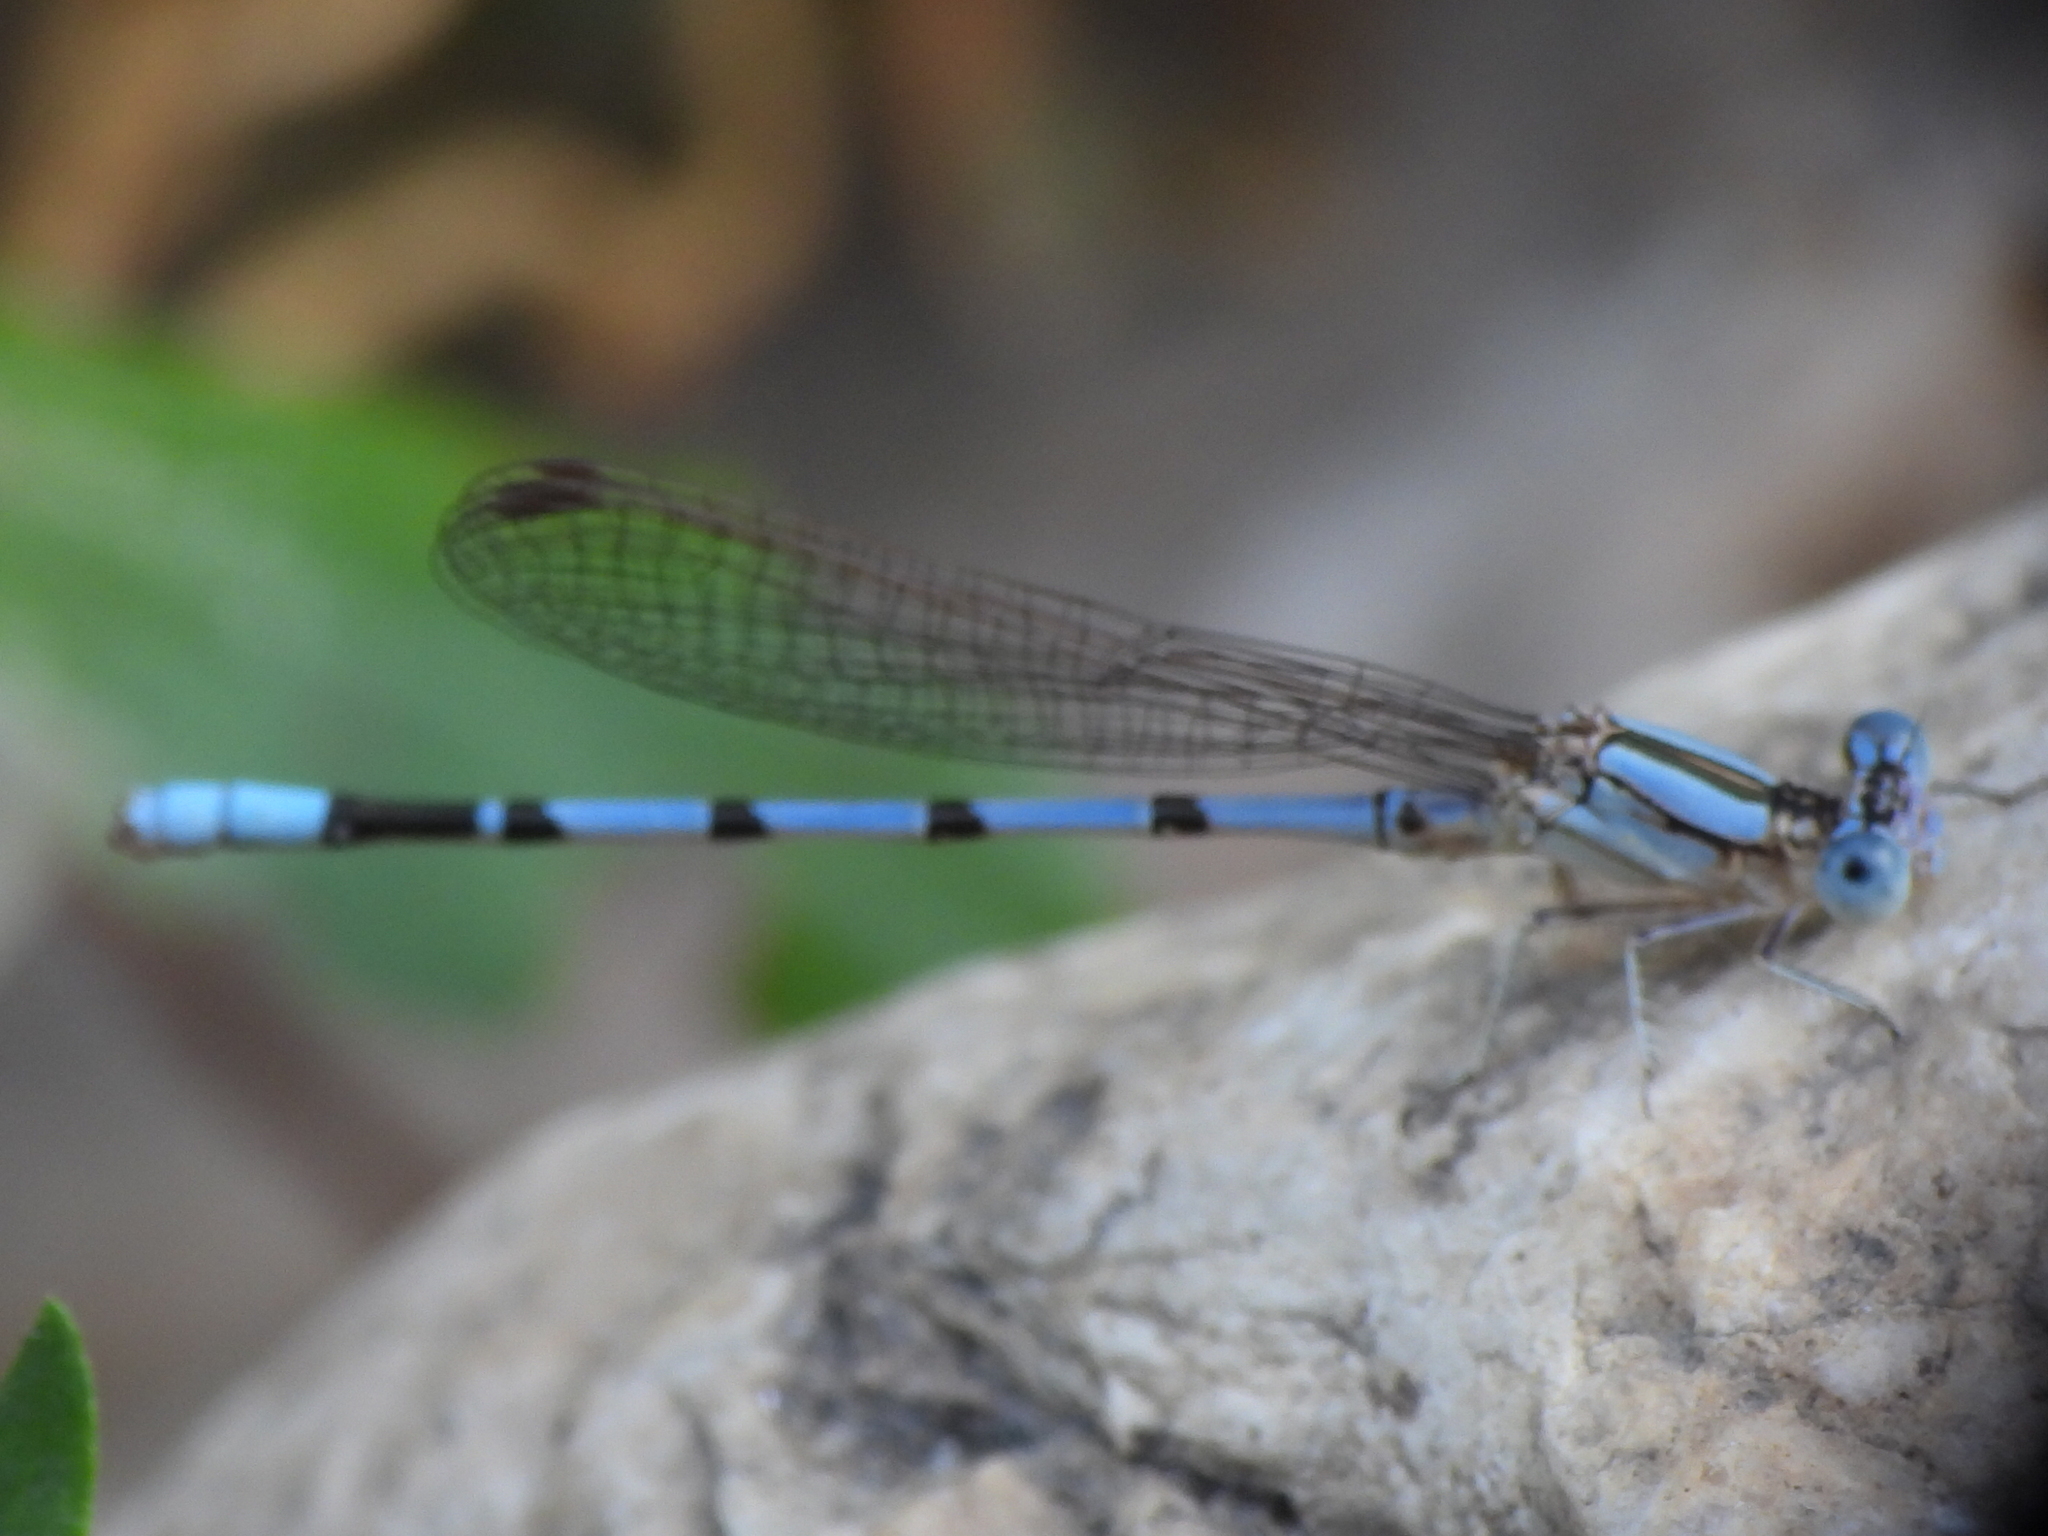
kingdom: Animalia
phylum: Arthropoda
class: Insecta
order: Odonata
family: Coenagrionidae
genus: Argia
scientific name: Argia nahuana
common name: Aztec dancer
